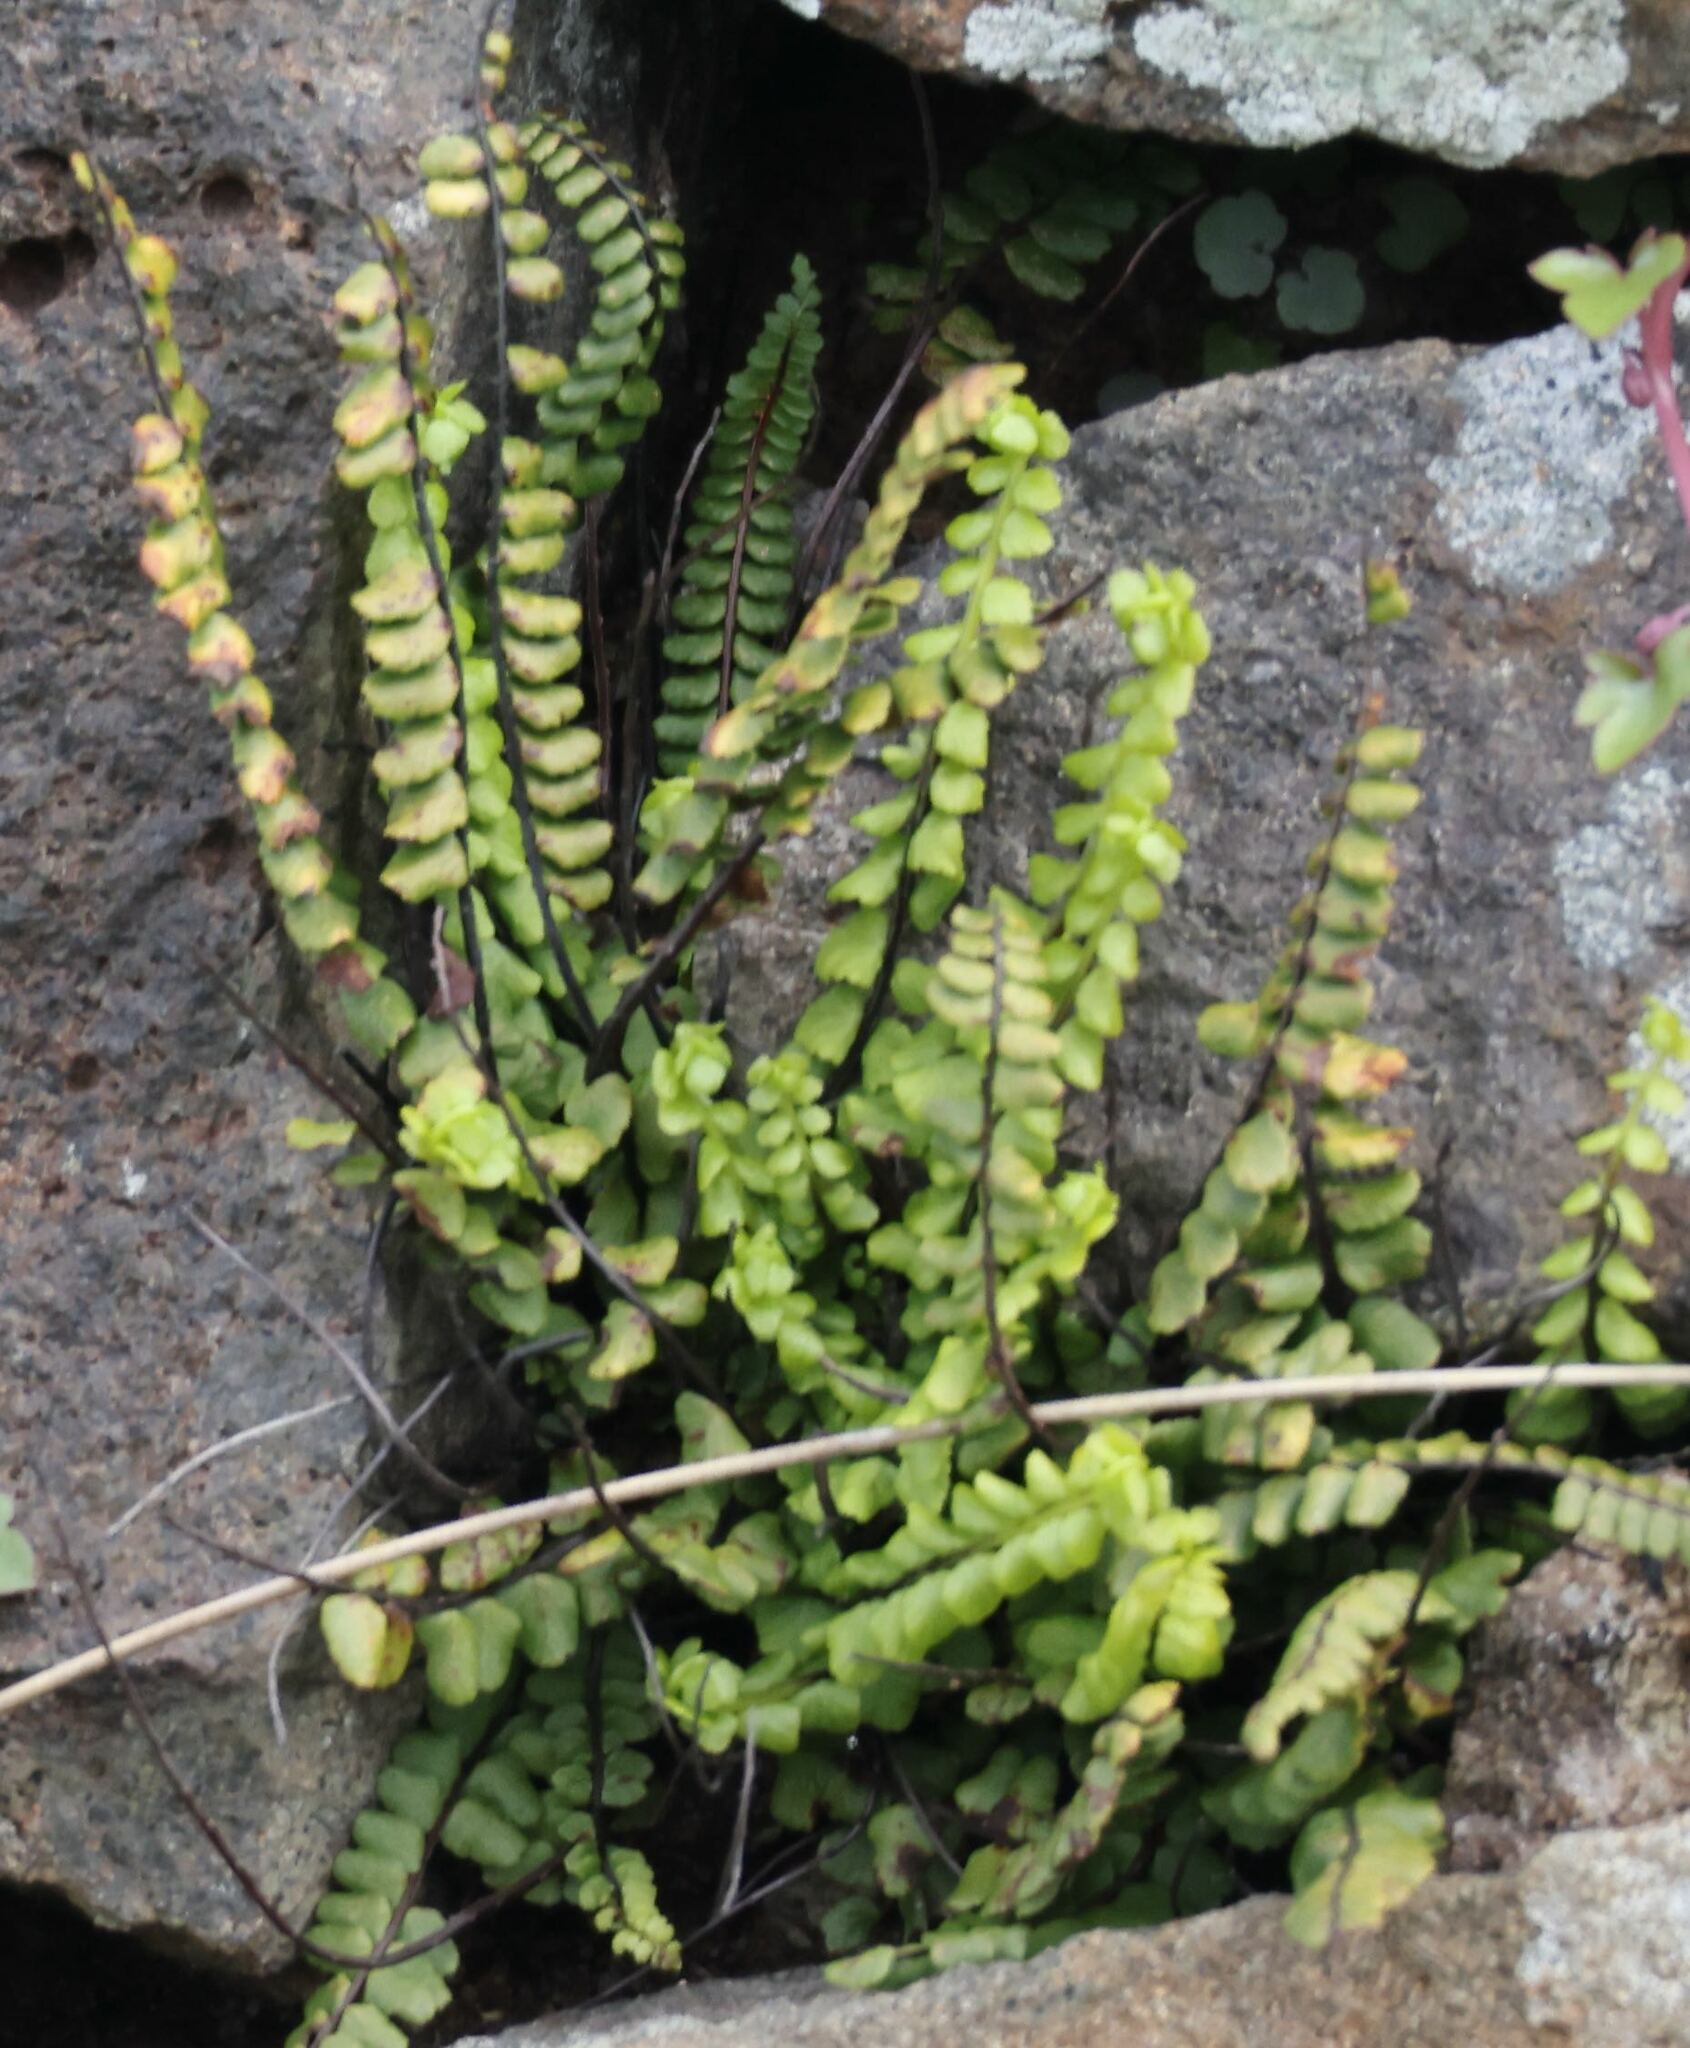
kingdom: Plantae
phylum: Tracheophyta
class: Polypodiopsida
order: Polypodiales
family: Aspleniaceae
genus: Asplenium
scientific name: Asplenium trichomanes
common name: Maidenhair spleenwort
